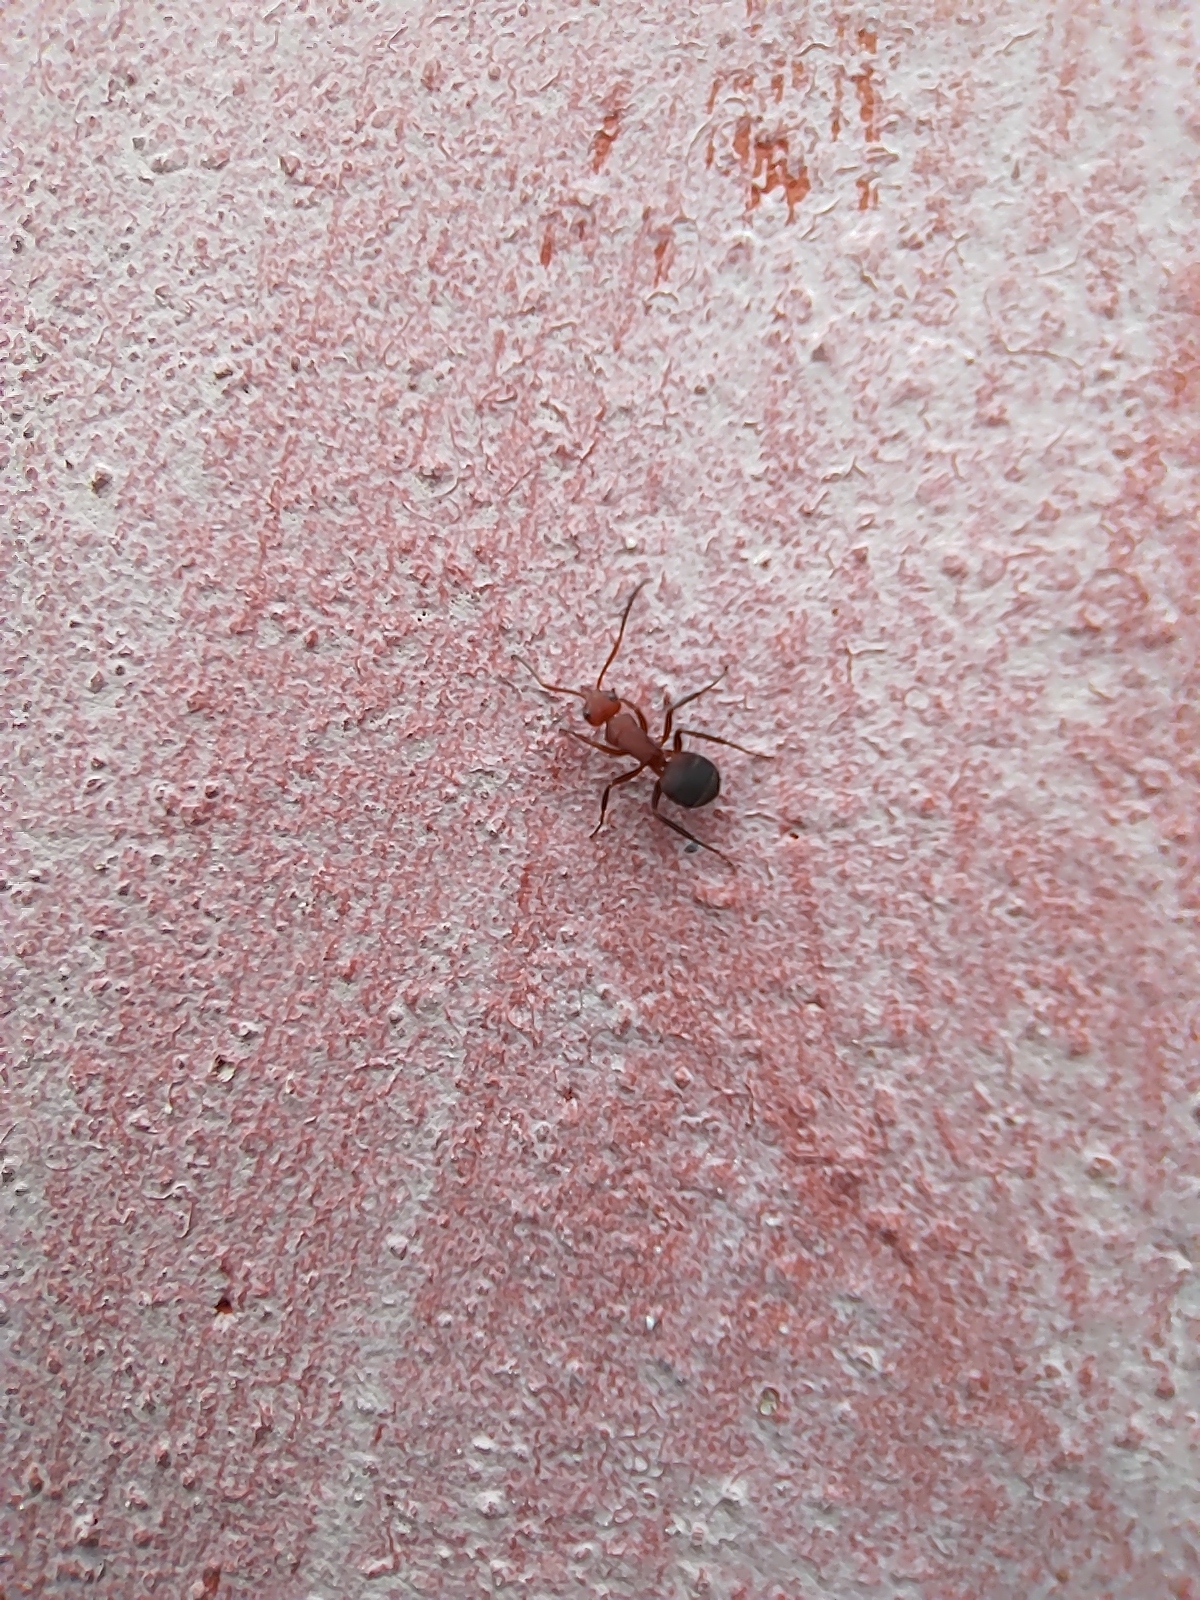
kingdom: Animalia
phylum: Arthropoda
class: Insecta
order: Hymenoptera
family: Formicidae
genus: Camponotus
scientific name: Camponotus rectangularis
